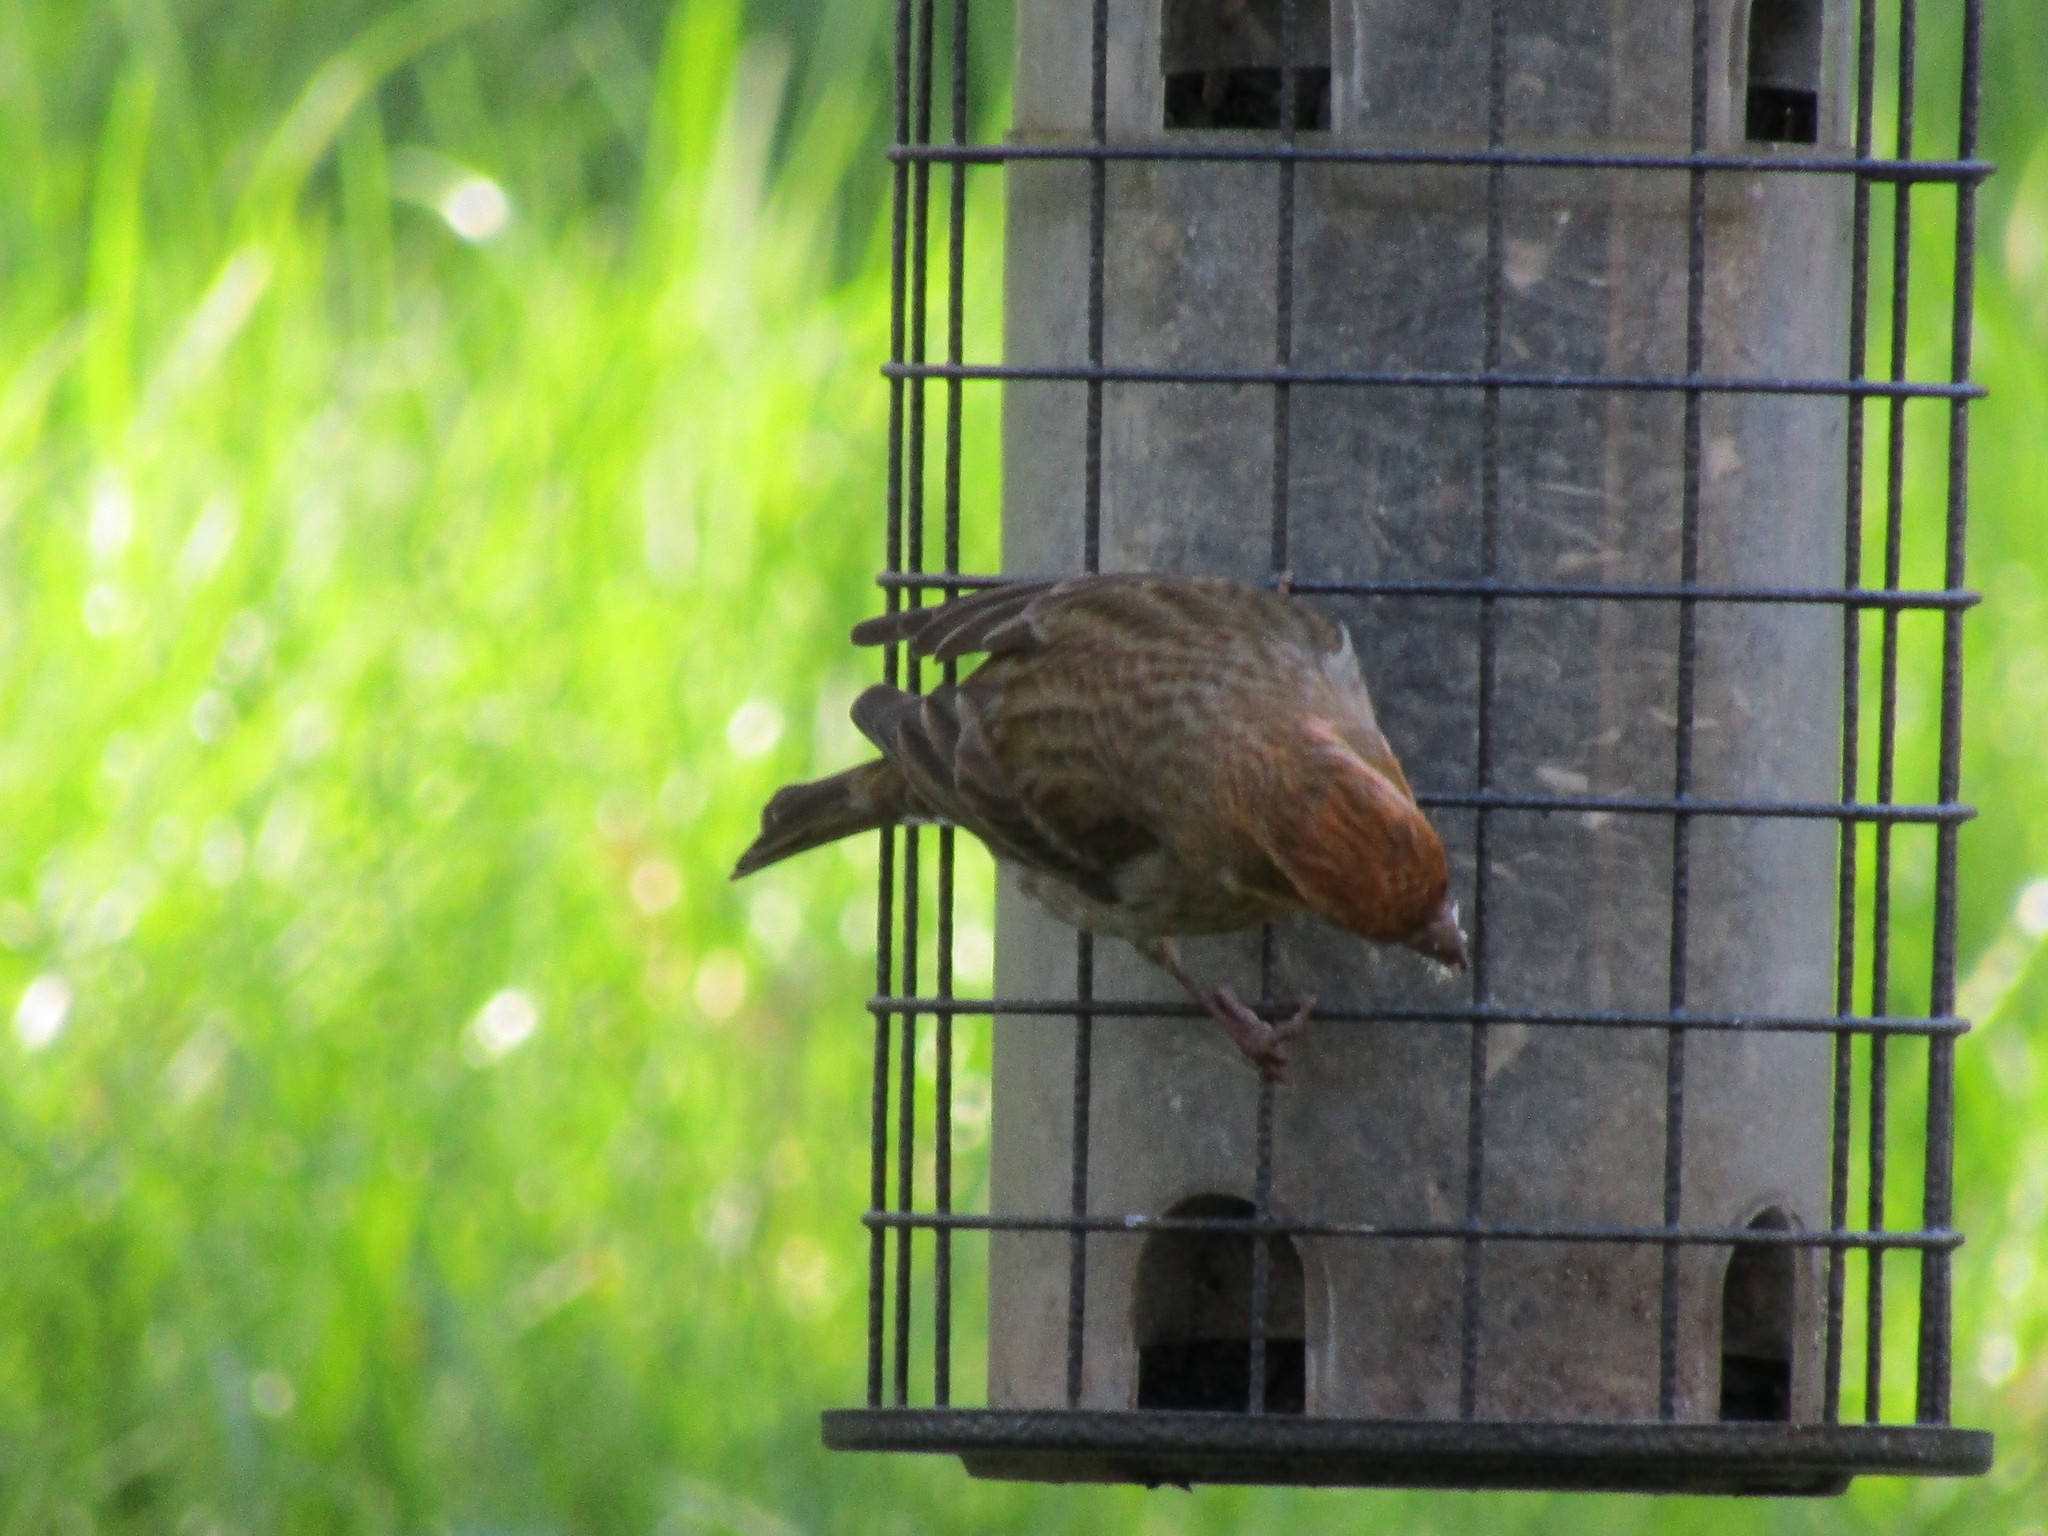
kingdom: Animalia
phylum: Chordata
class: Aves
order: Passeriformes
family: Fringillidae
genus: Haemorhous
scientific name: Haemorhous purpureus
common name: Purple finch
